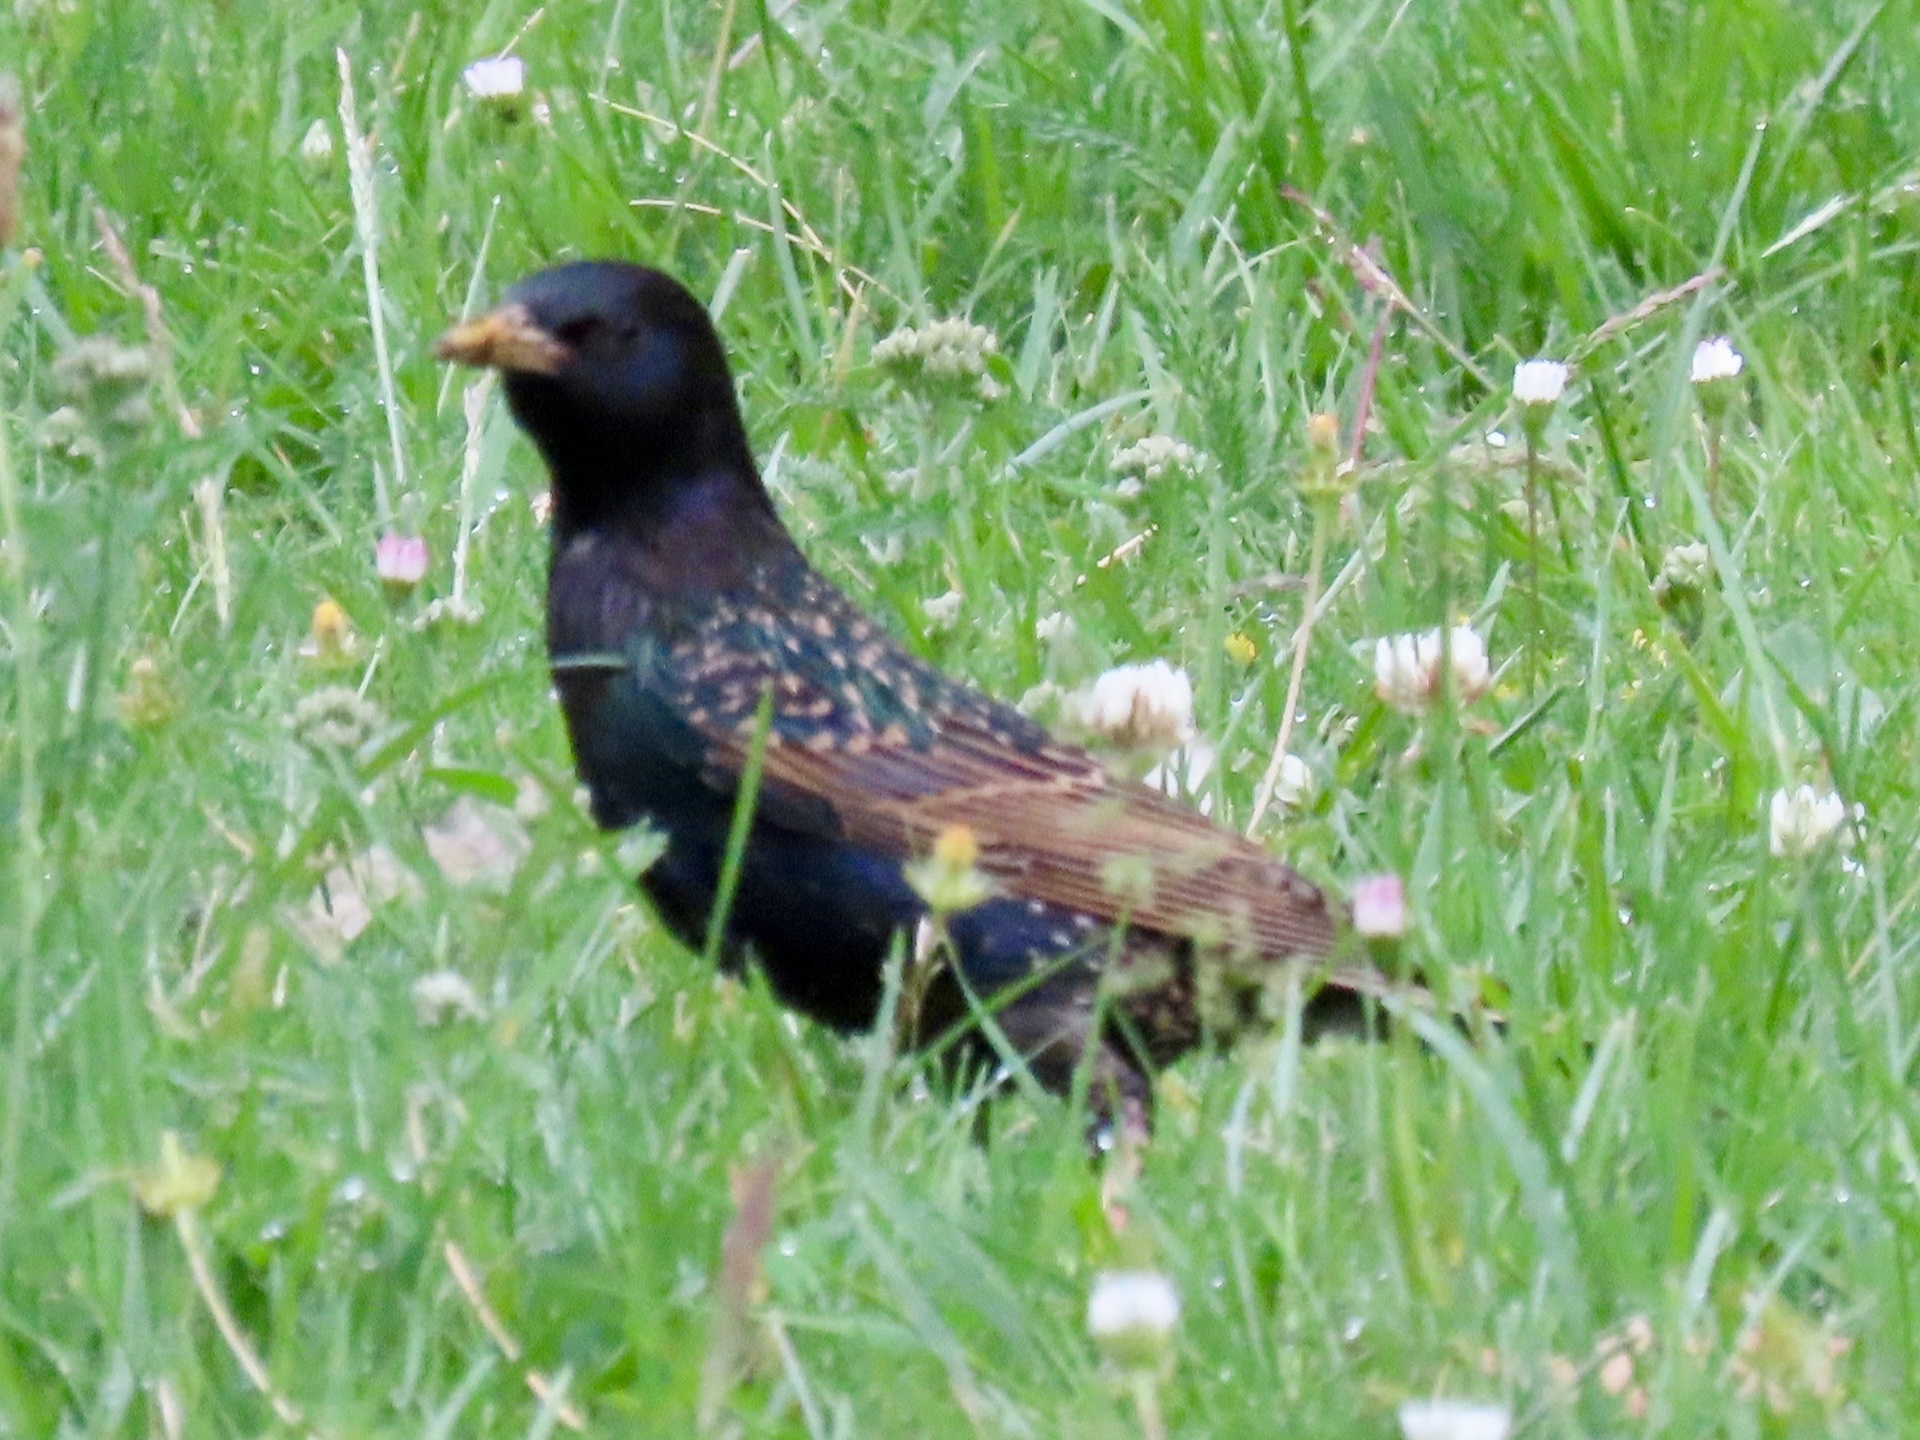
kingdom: Animalia
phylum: Chordata
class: Aves
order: Passeriformes
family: Sturnidae
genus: Sturnus
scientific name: Sturnus vulgaris
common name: Common starling
